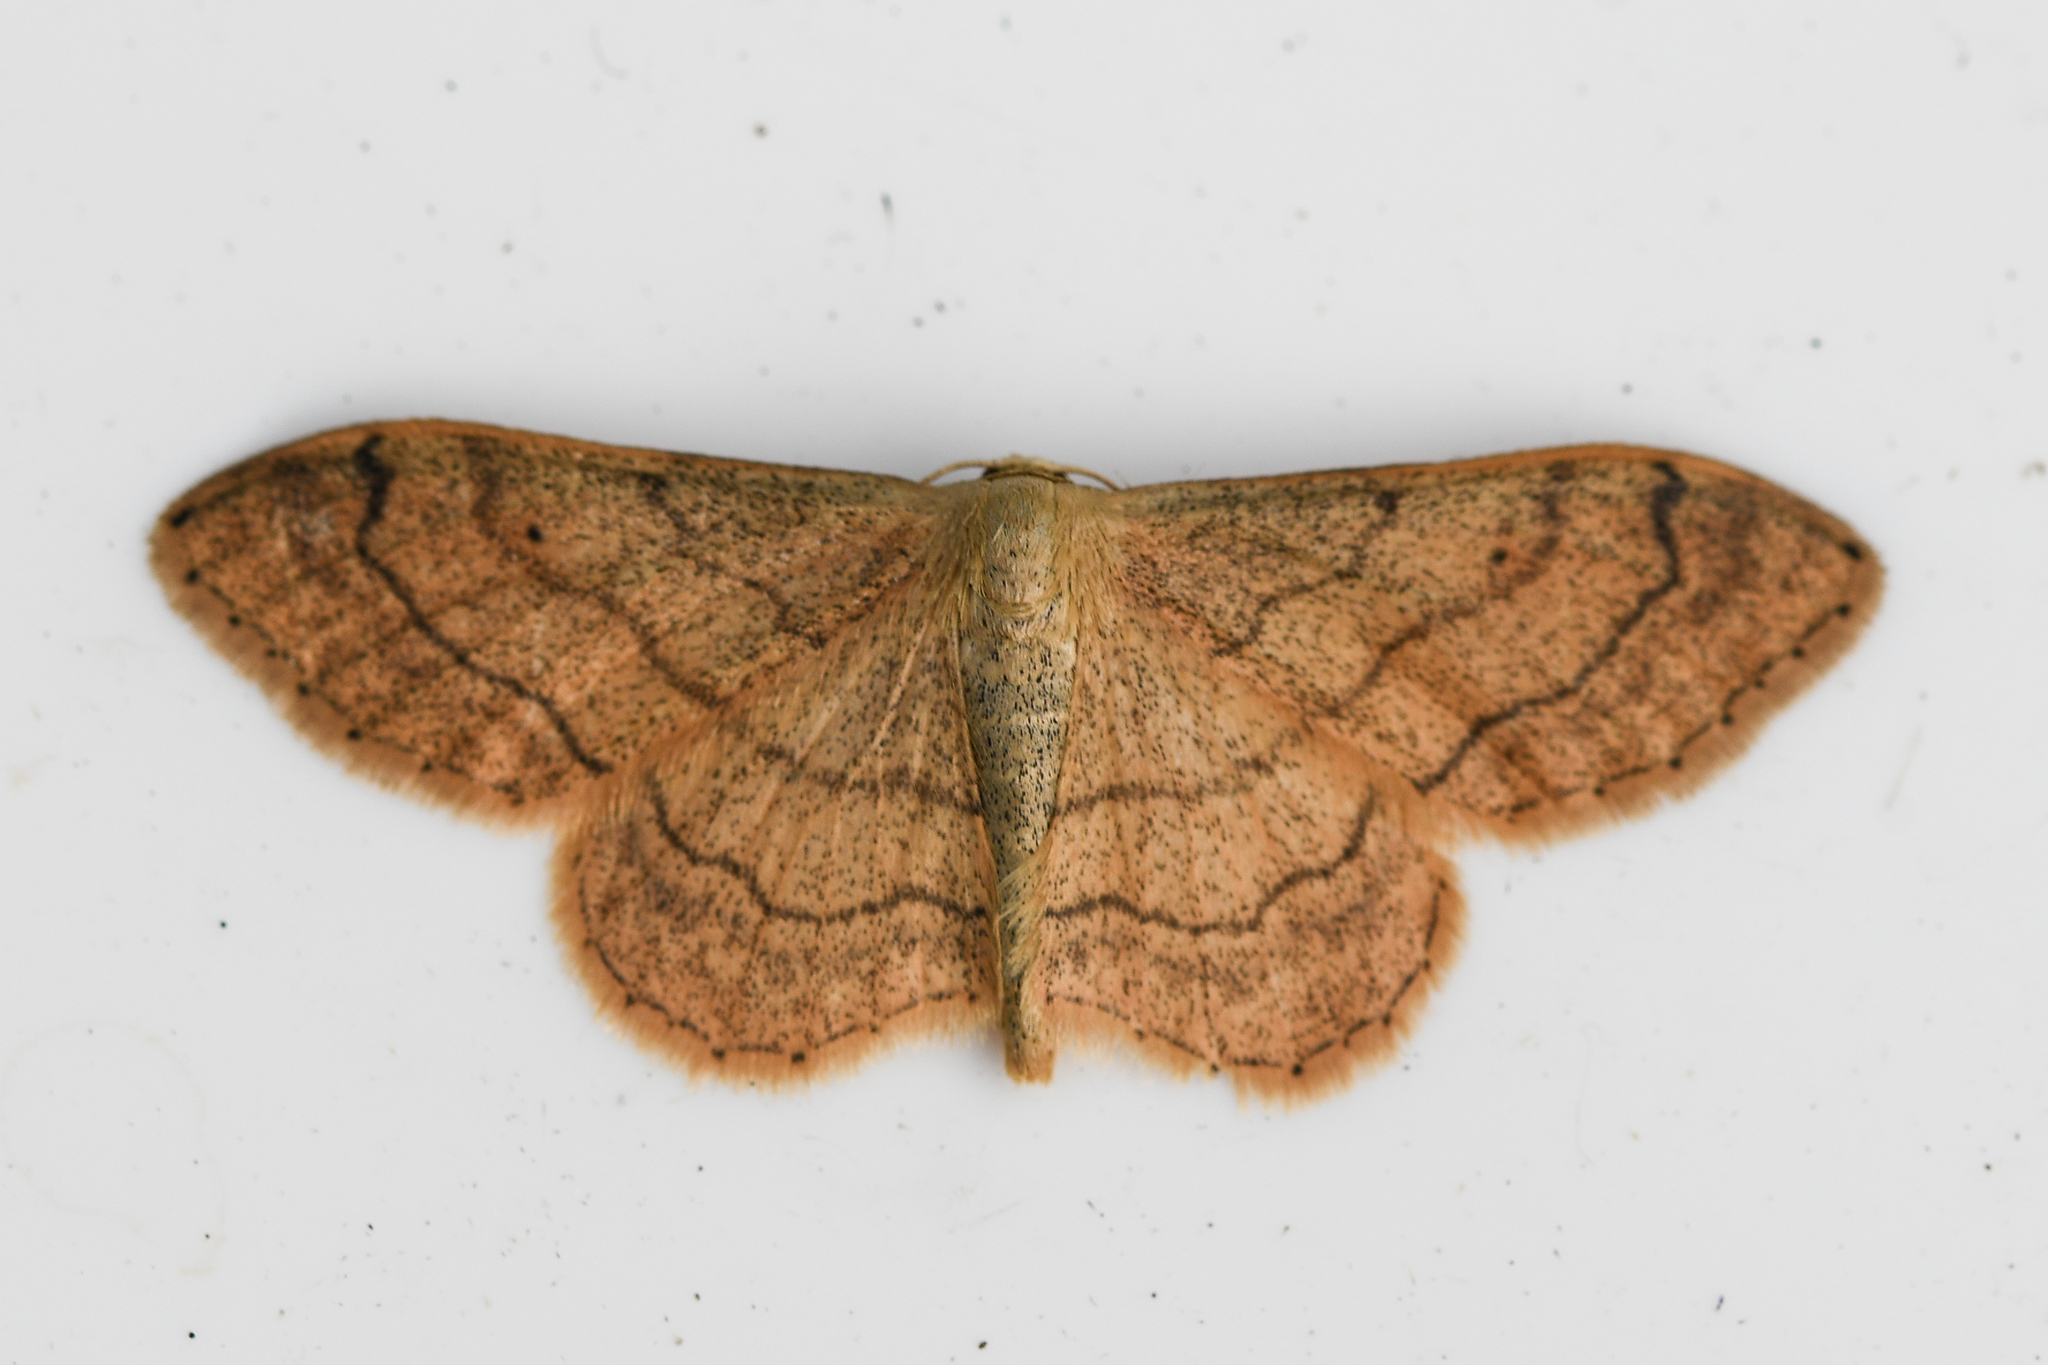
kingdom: Animalia
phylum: Arthropoda
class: Insecta
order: Lepidoptera
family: Geometridae
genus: Idaea
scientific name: Idaea aversata
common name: Riband wave
